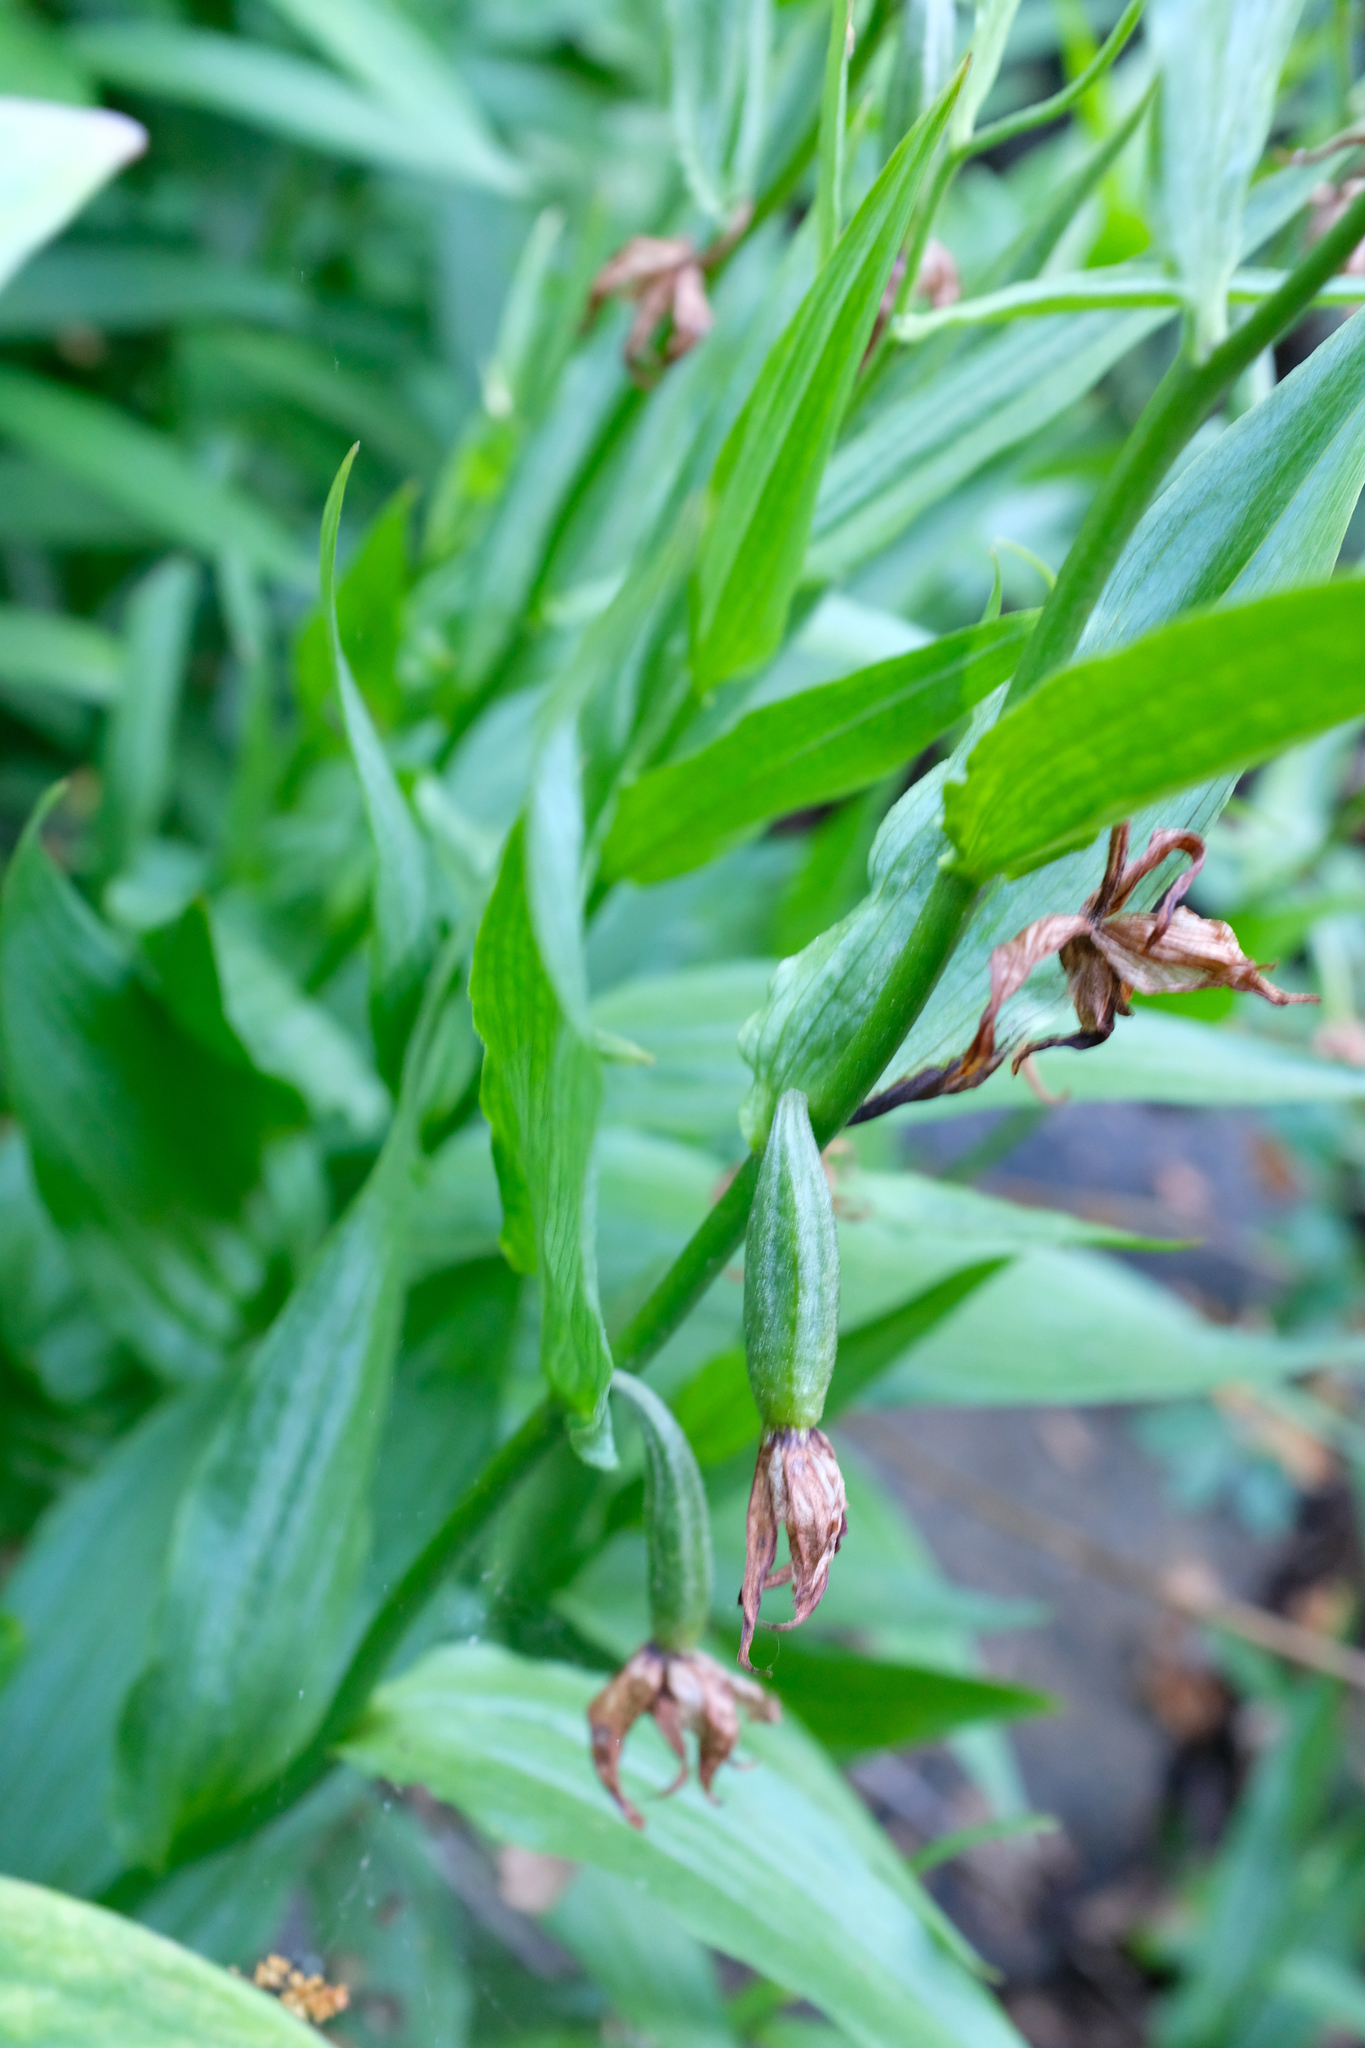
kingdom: Plantae
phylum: Tracheophyta
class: Liliopsida
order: Asparagales
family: Orchidaceae
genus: Epipactis
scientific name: Epipactis gigantea
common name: Chatterbox
